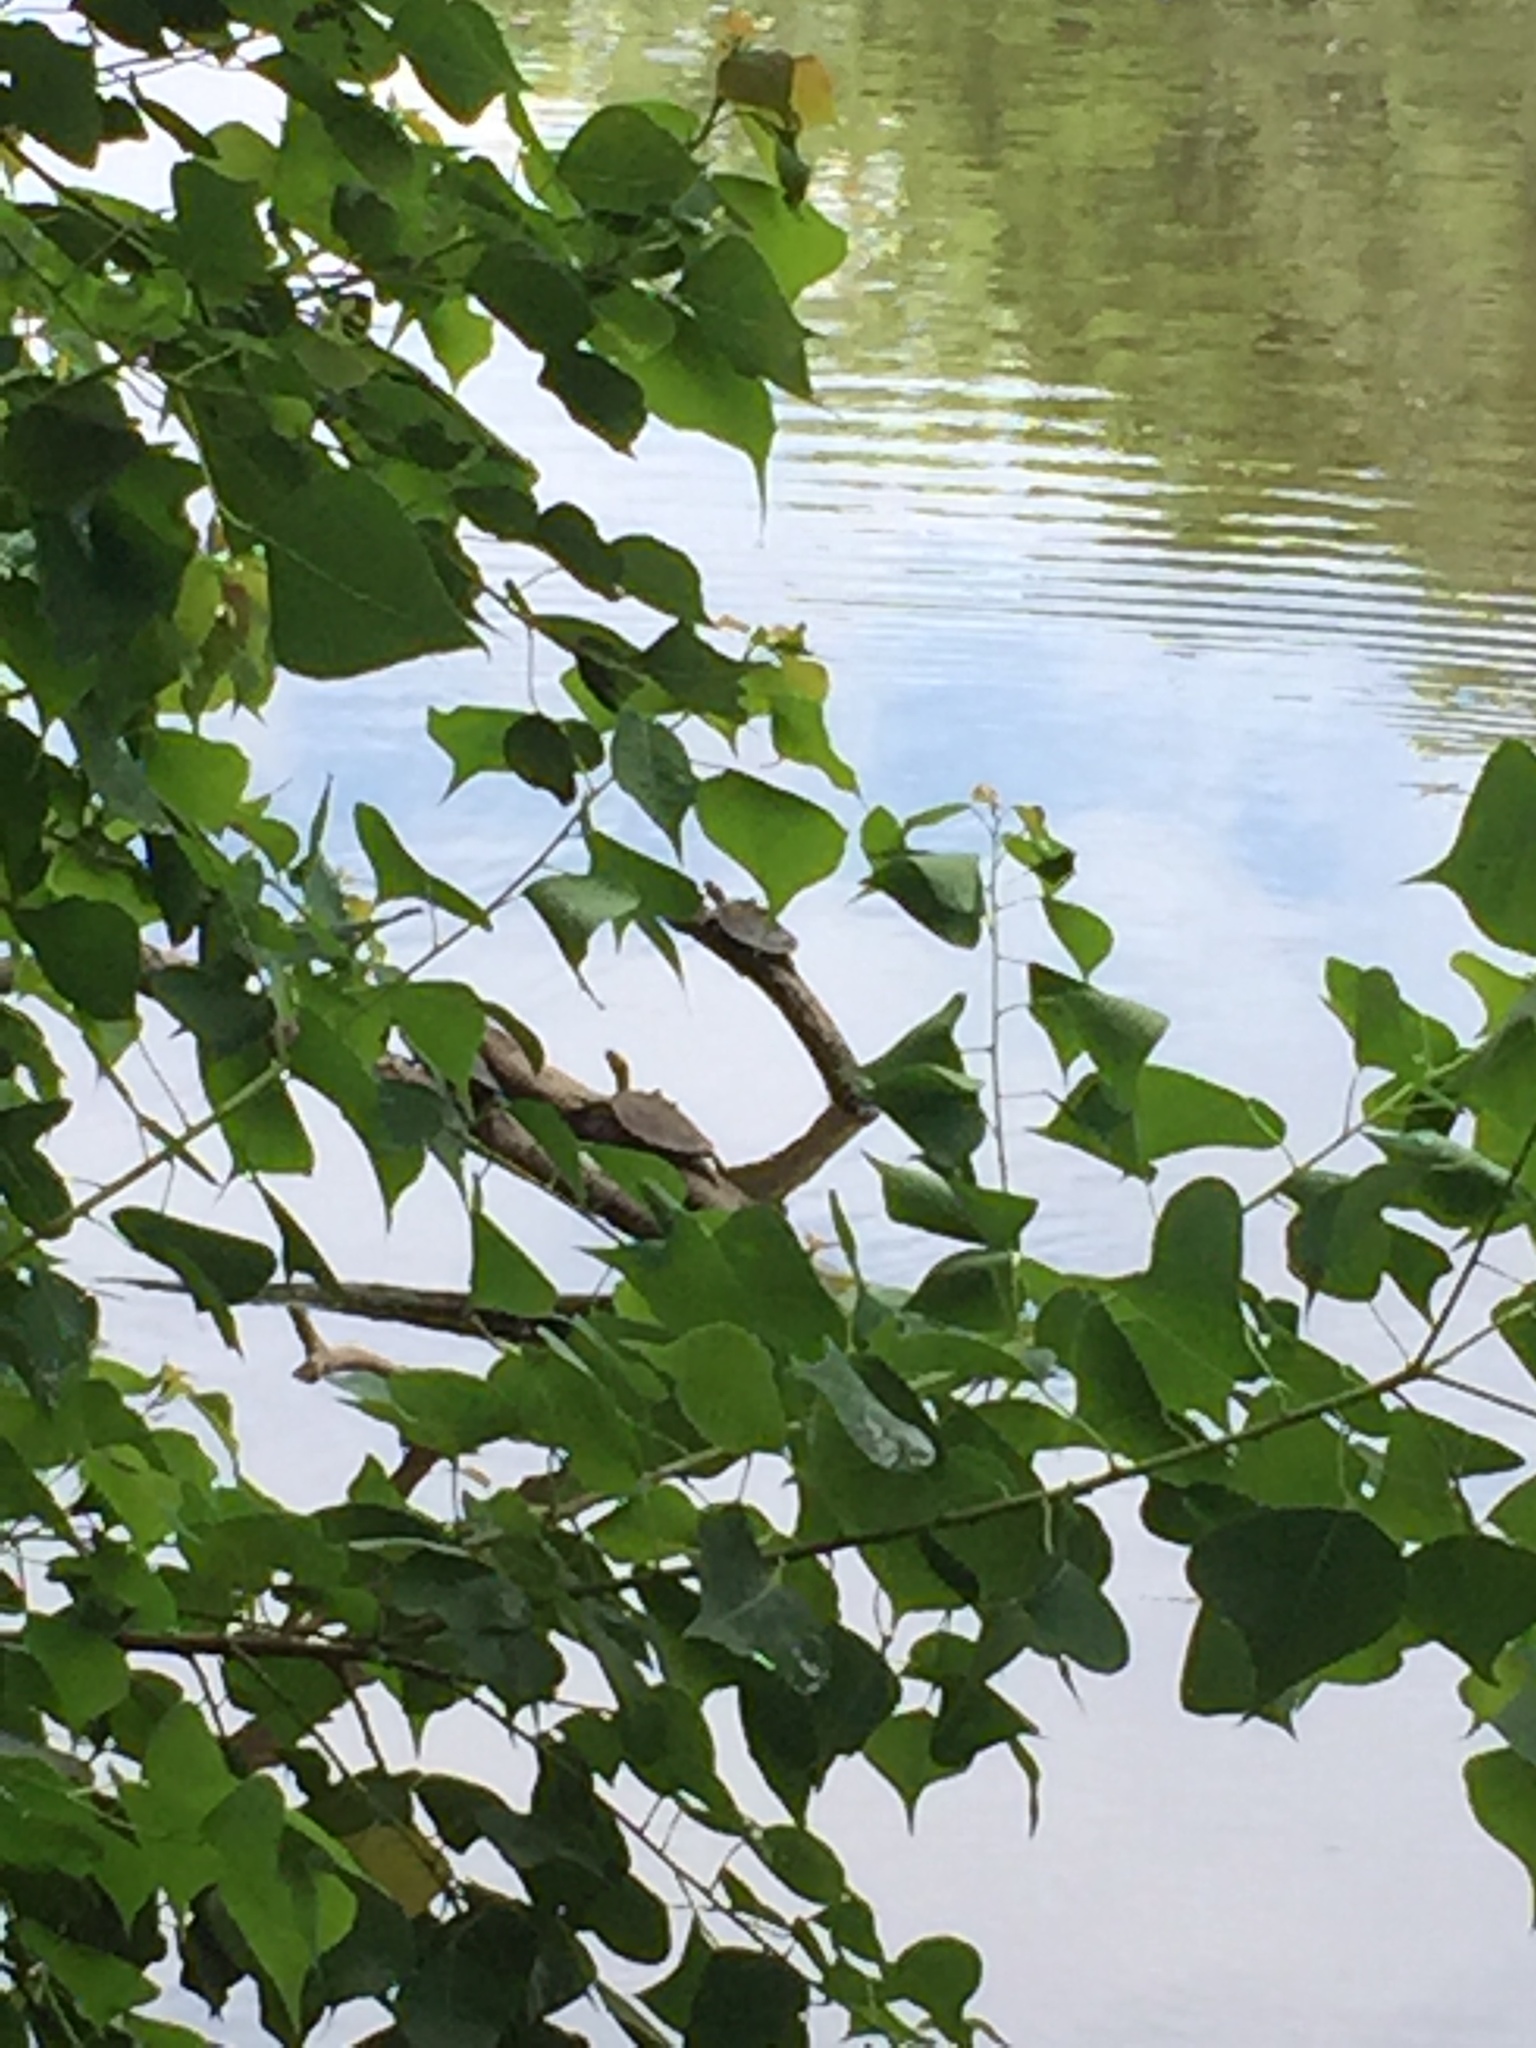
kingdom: Animalia
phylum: Chordata
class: Testudines
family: Emydidae
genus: Graptemys
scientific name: Graptemys oculifera
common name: Ringed map turtle
